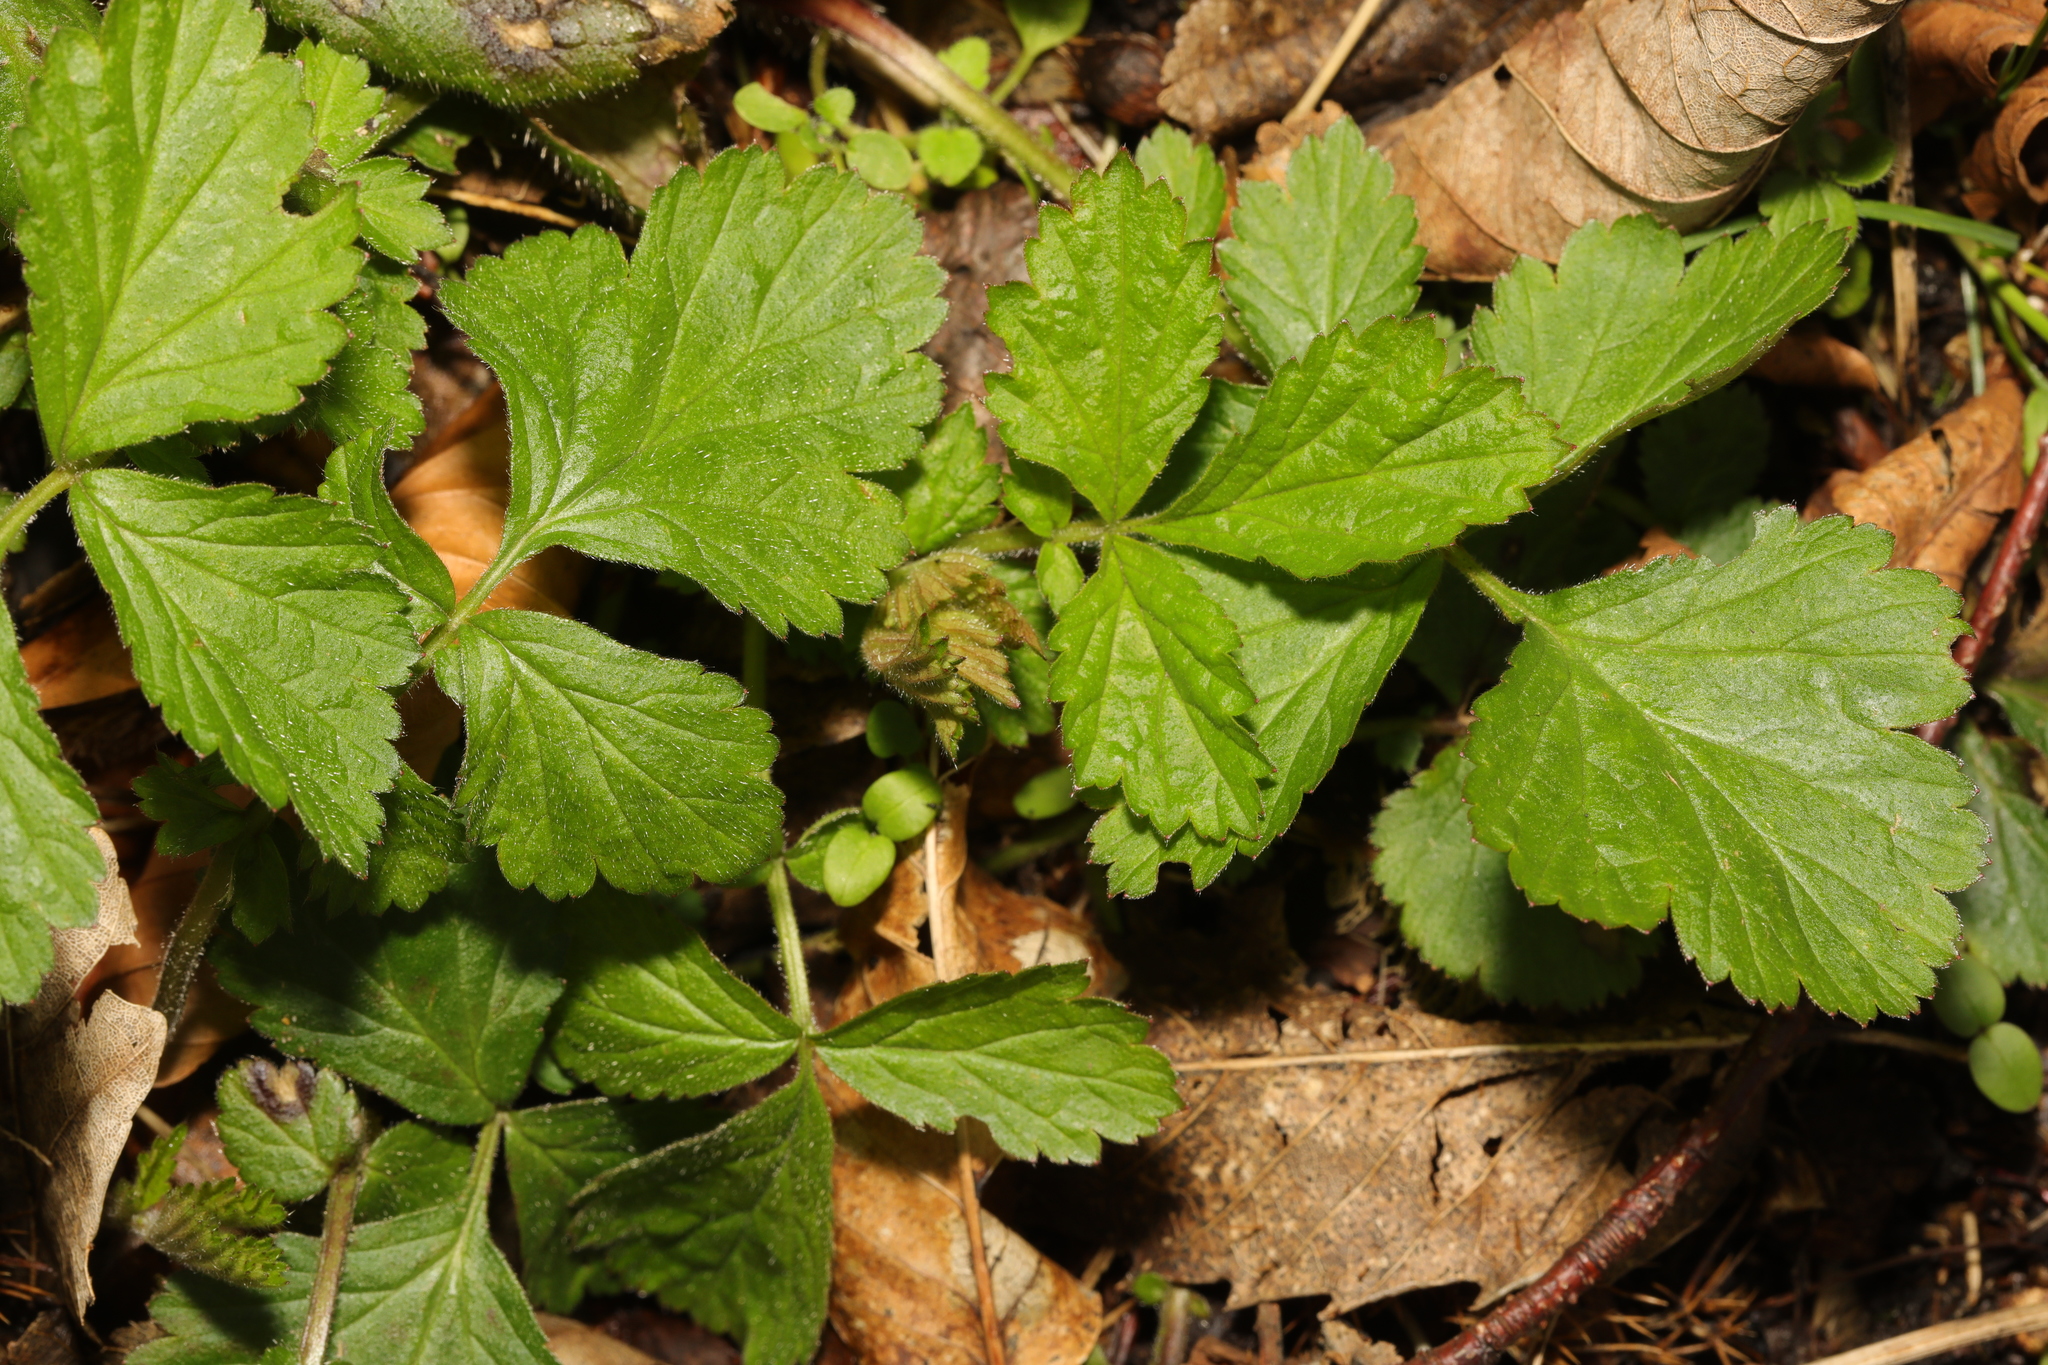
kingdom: Plantae
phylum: Tracheophyta
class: Magnoliopsida
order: Rosales
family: Rosaceae
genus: Geum
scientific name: Geum urbanum
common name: Wood avens
